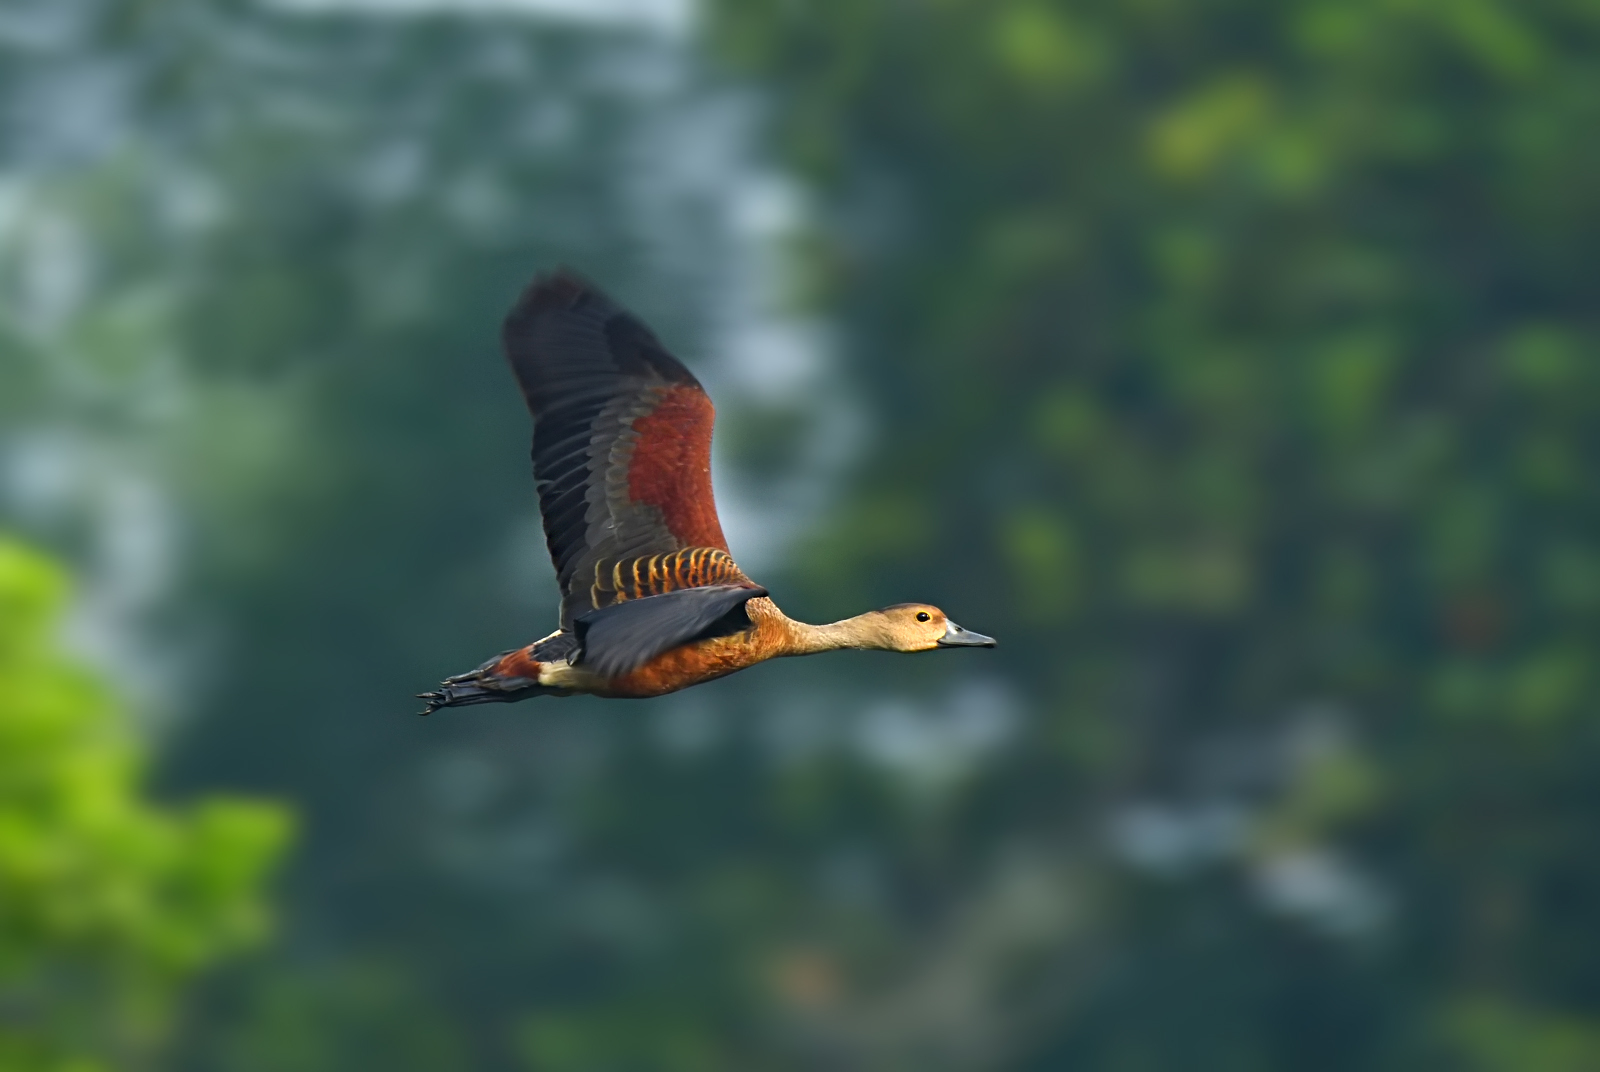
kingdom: Animalia
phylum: Chordata
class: Aves
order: Anseriformes
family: Anatidae
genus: Dendrocygna
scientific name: Dendrocygna javanica
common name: Lesser whistling-duck
